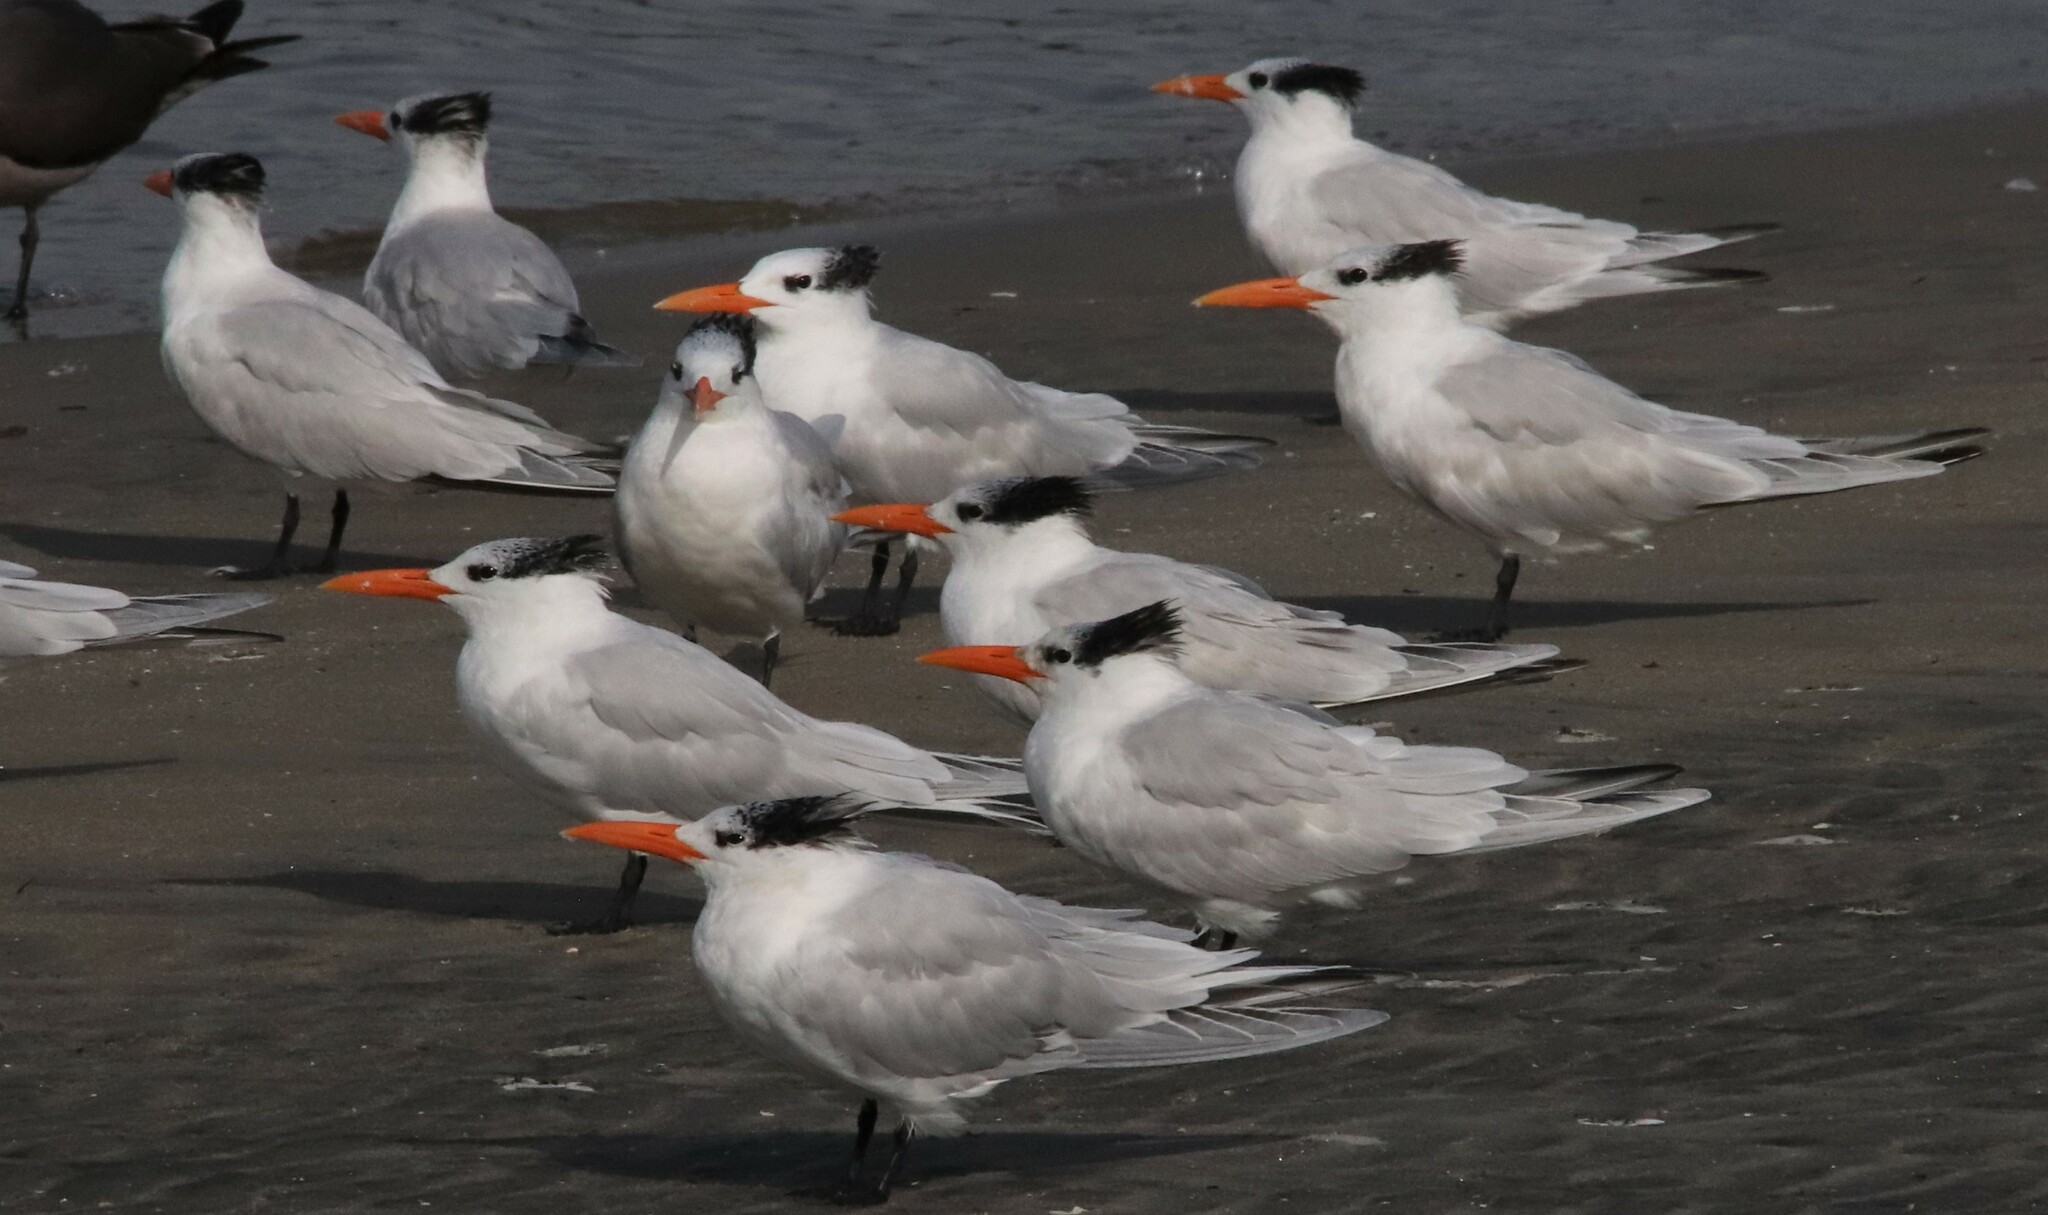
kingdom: Animalia
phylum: Chordata
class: Aves
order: Charadriiformes
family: Laridae
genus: Thalasseus
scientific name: Thalasseus maximus
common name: Royal tern
